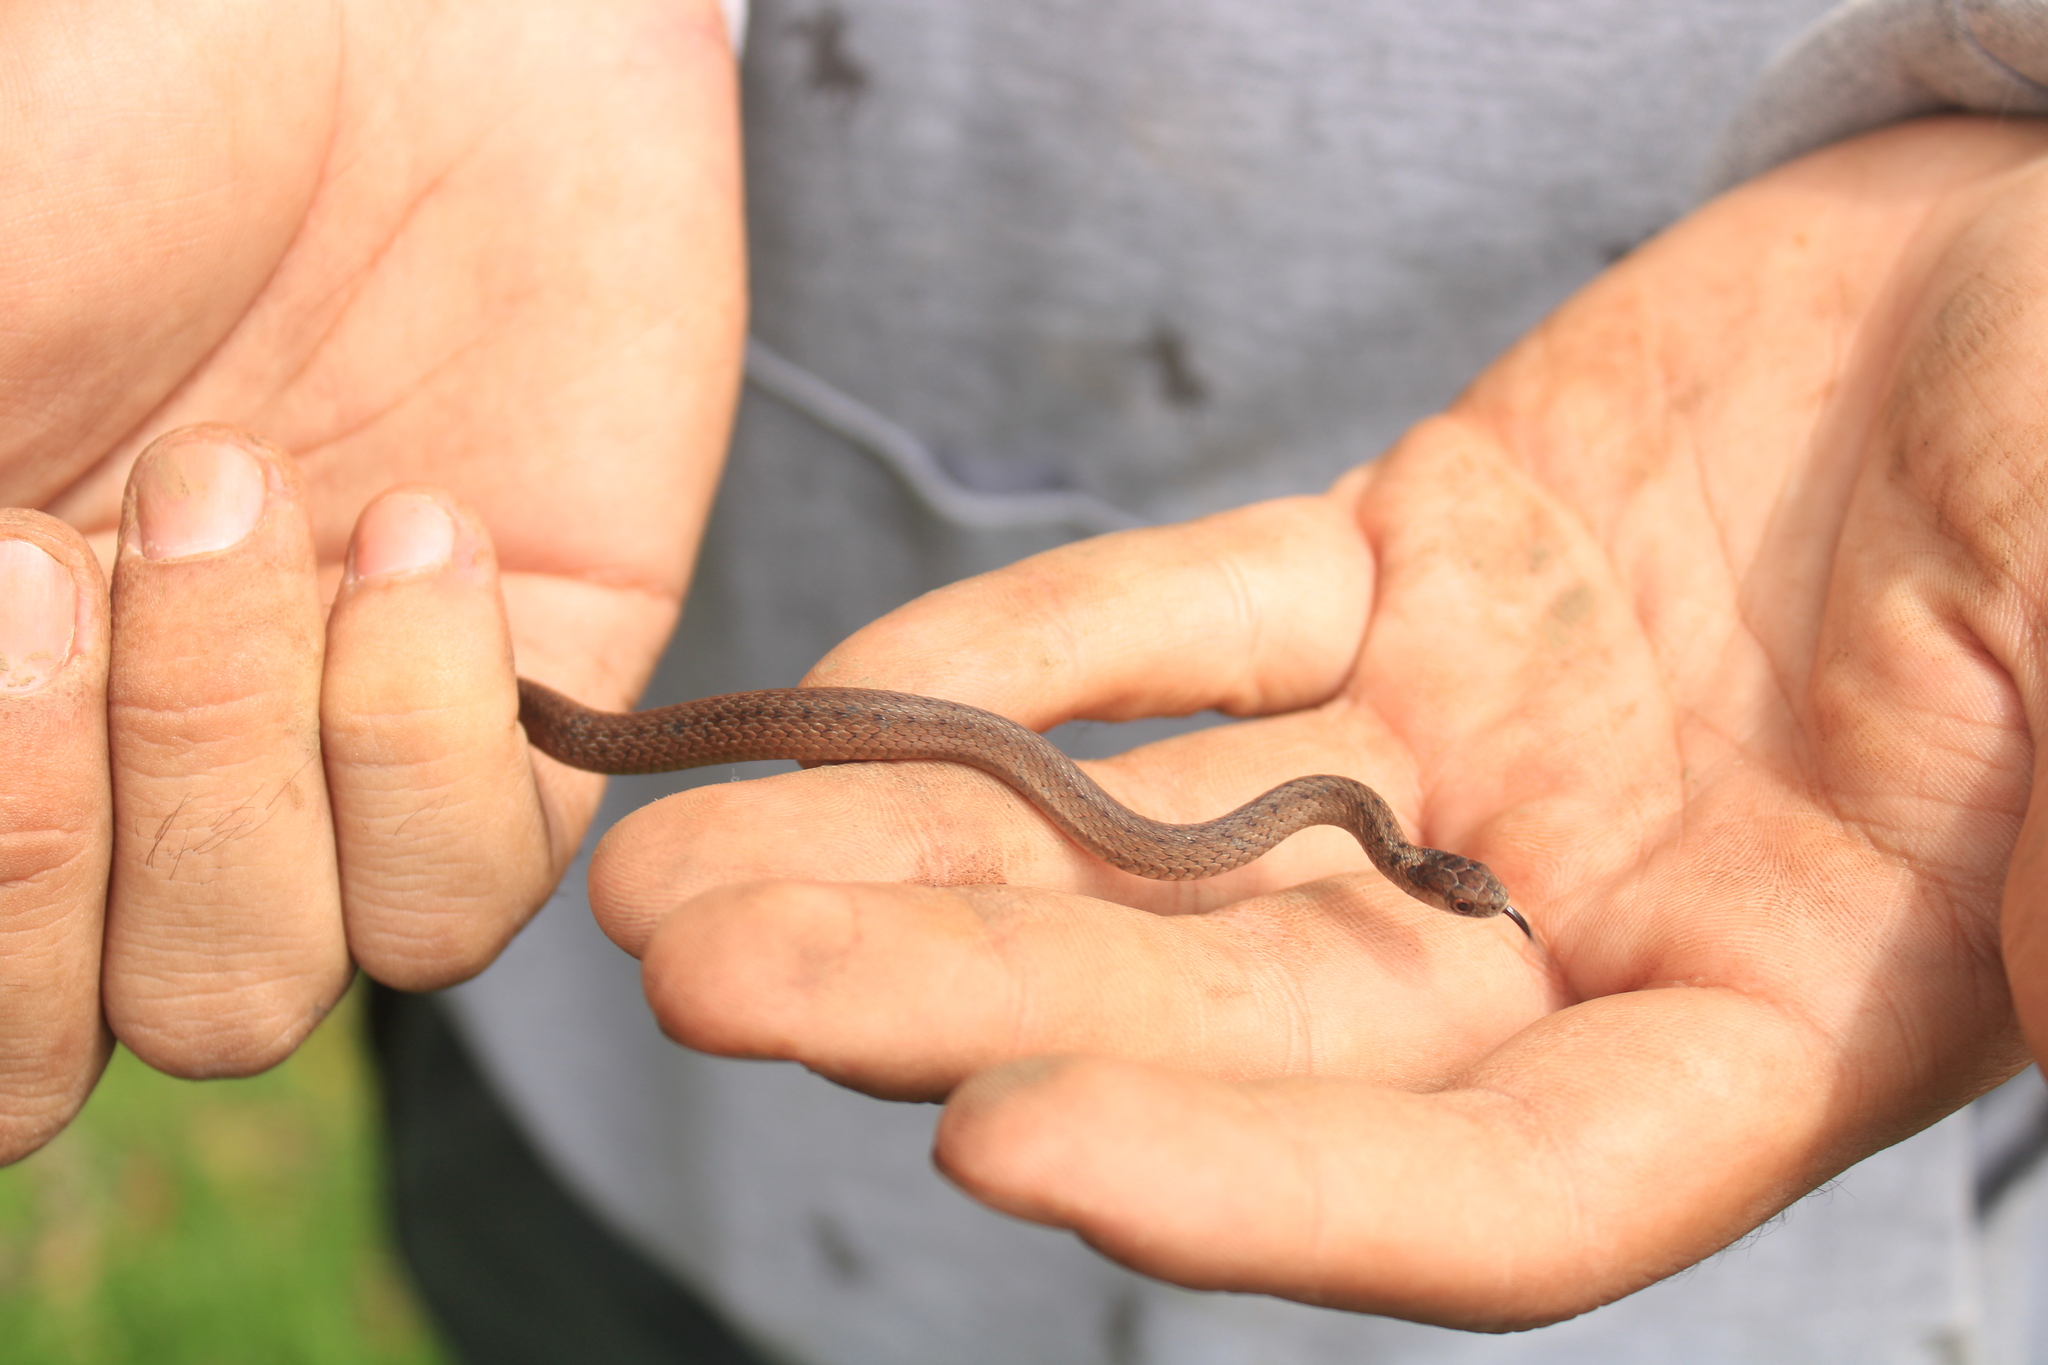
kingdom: Animalia
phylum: Chordata
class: Squamata
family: Colubridae
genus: Storeria
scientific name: Storeria storerioides
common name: Mexican brown snake
